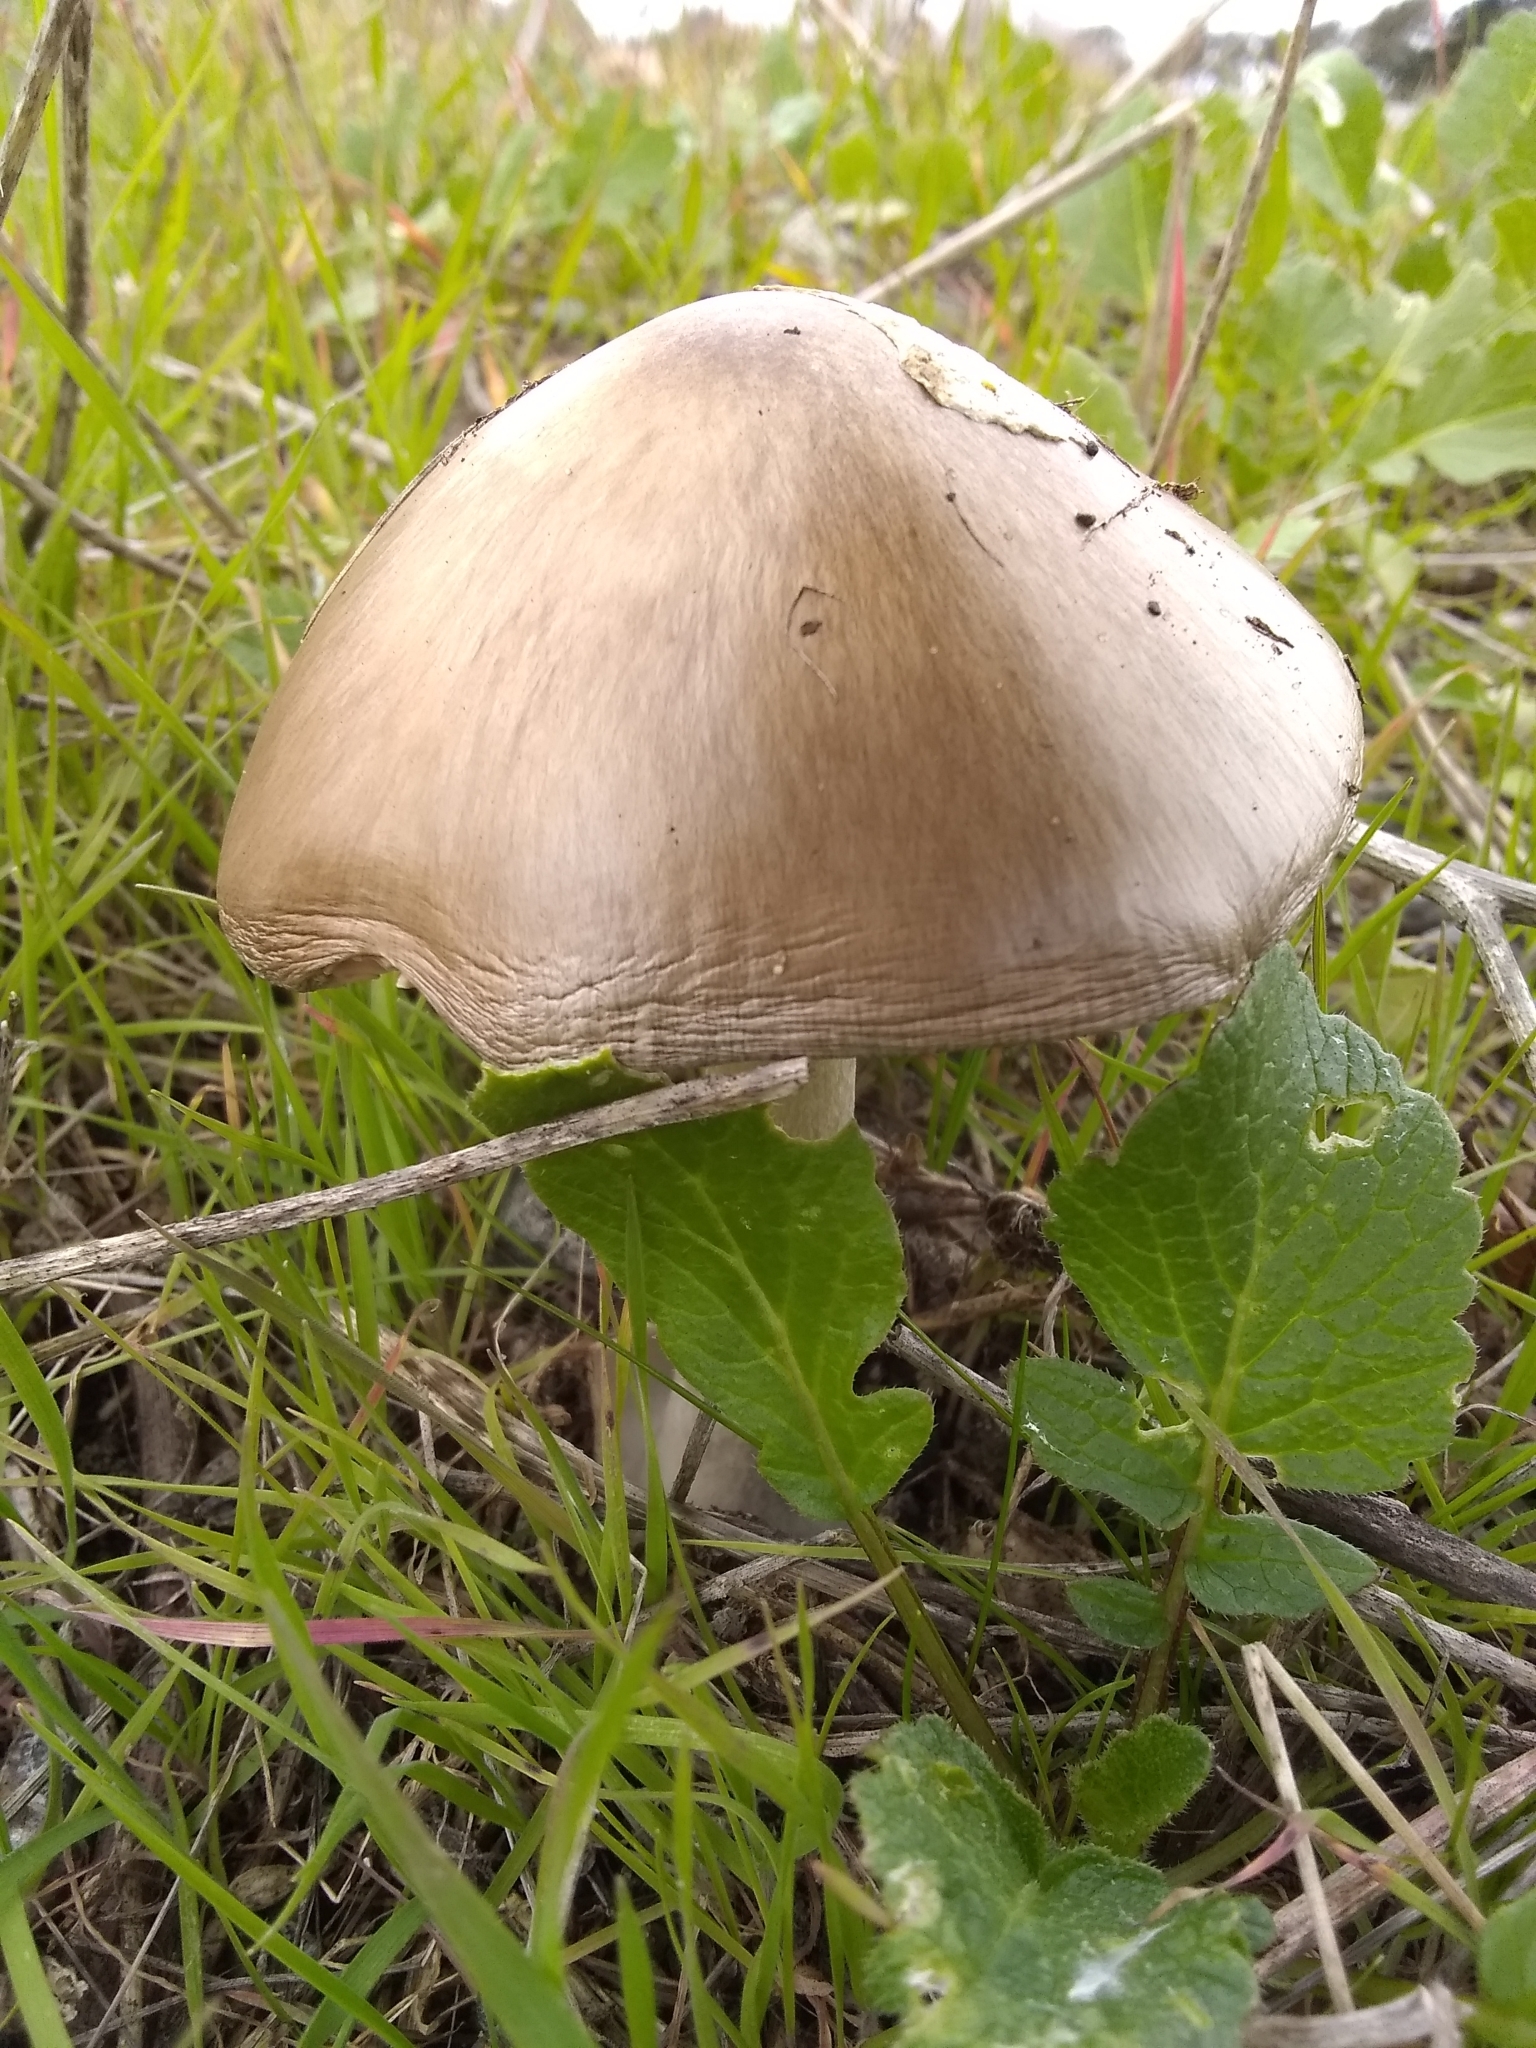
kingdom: Fungi
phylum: Basidiomycota
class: Agaricomycetes
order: Agaricales
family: Pluteaceae
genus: Volvopluteus
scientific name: Volvopluteus gloiocephalus
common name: Stubble rosegill
